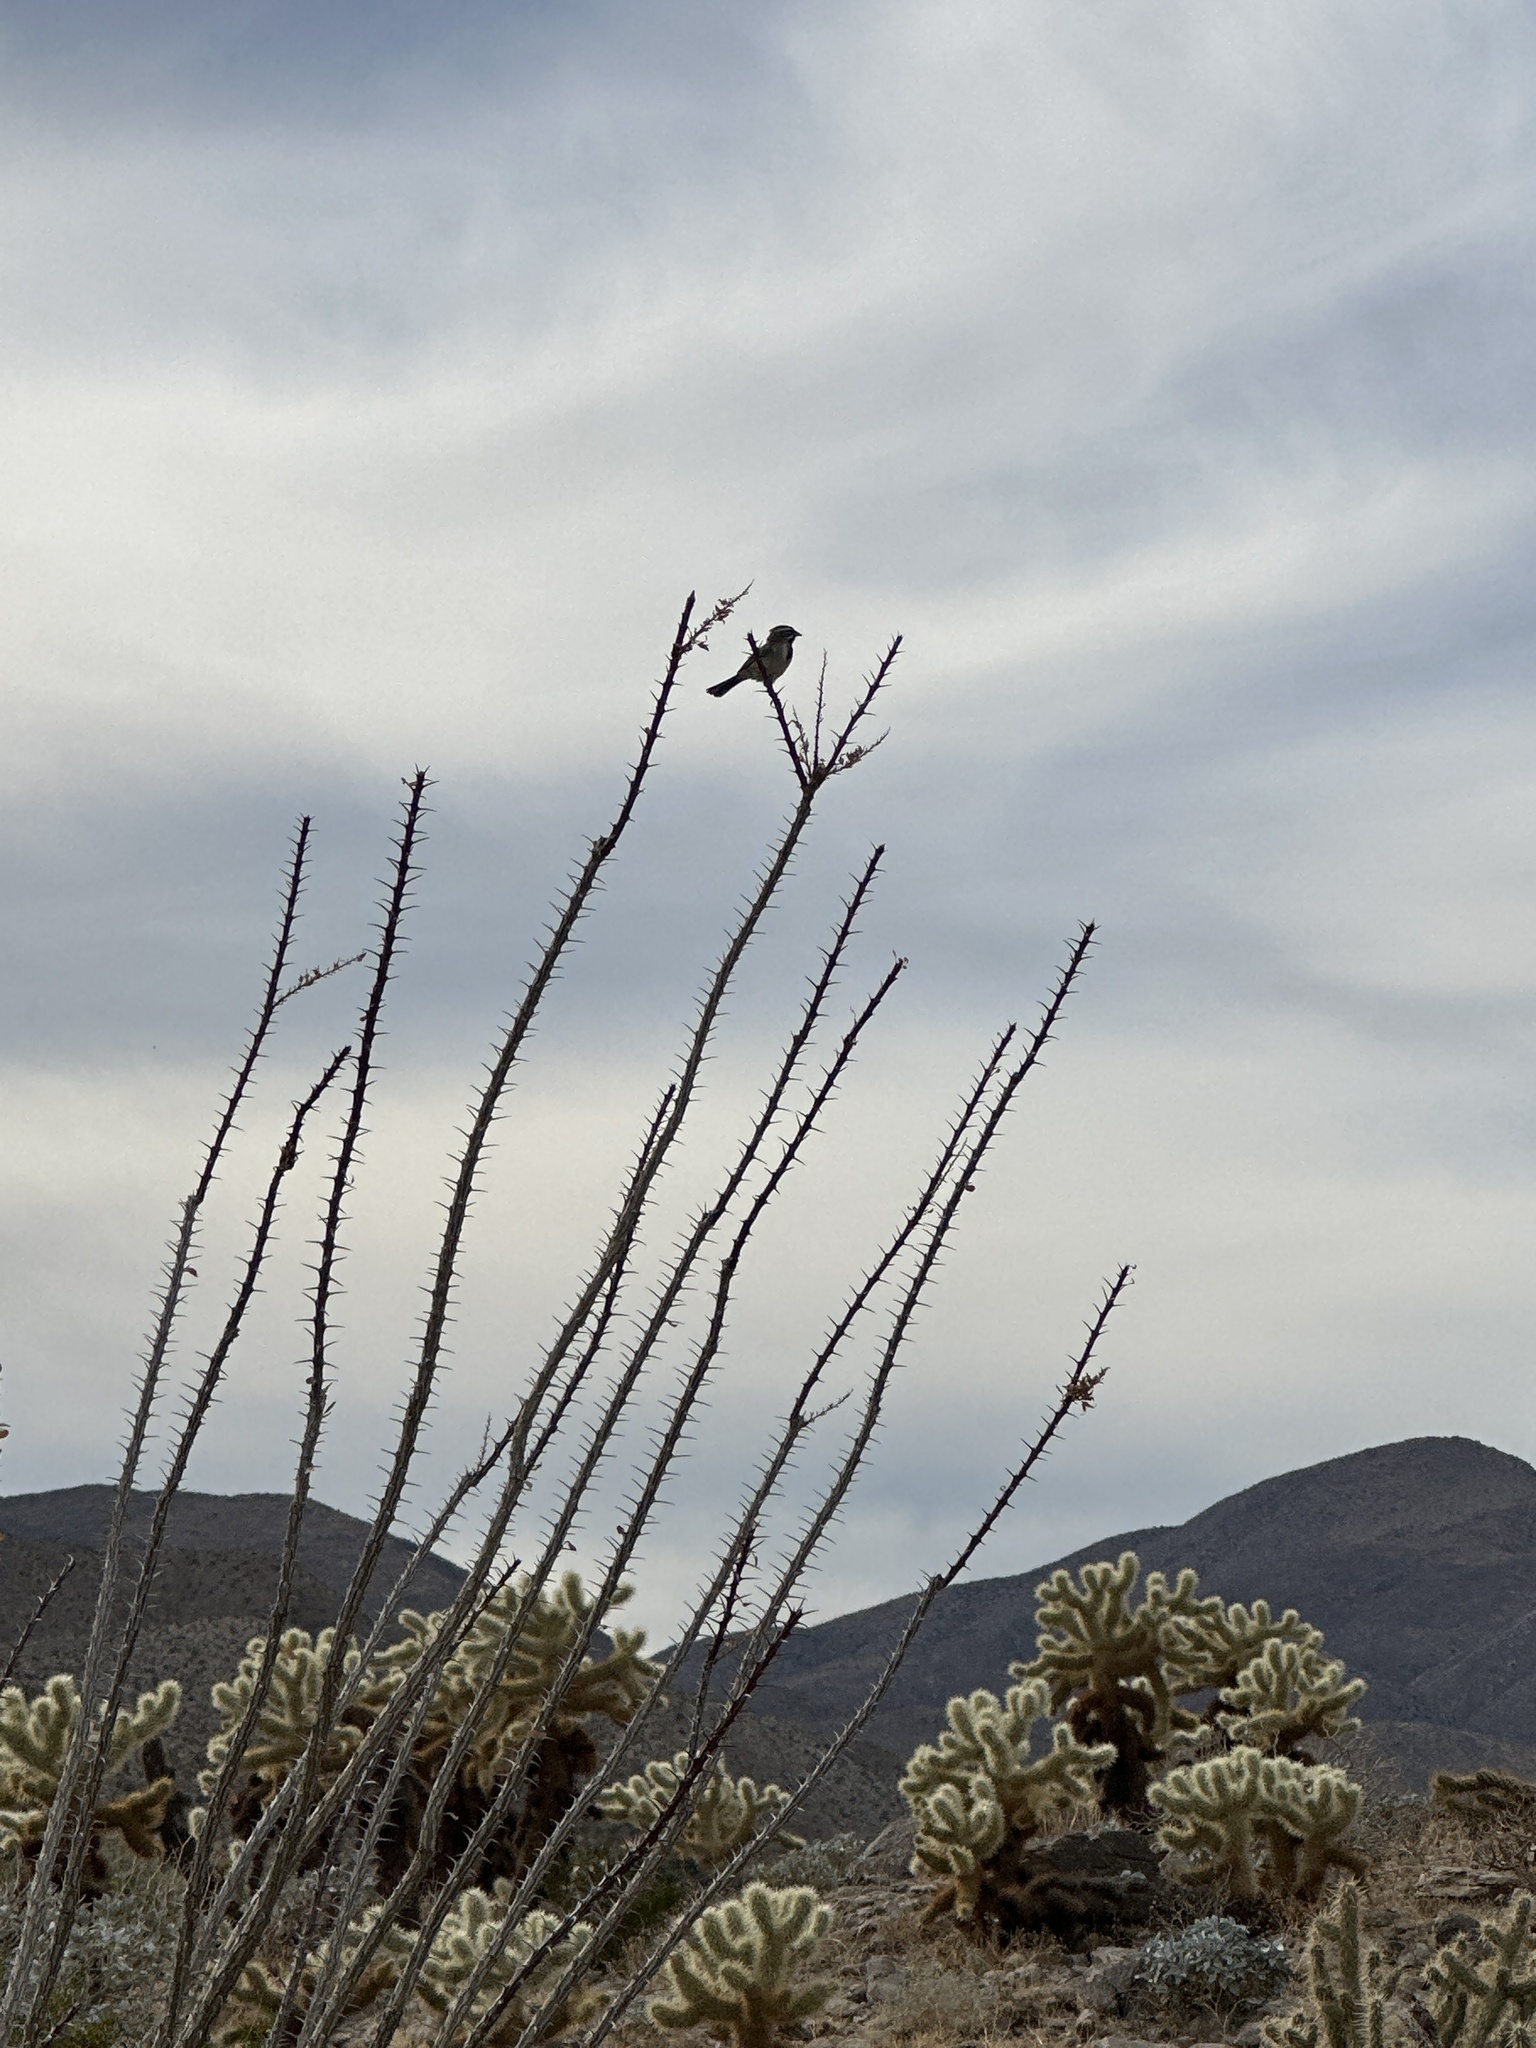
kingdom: Animalia
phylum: Chordata
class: Aves
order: Passeriformes
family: Passerellidae
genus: Amphispiza
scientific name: Amphispiza bilineata
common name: Black-throated sparrow
